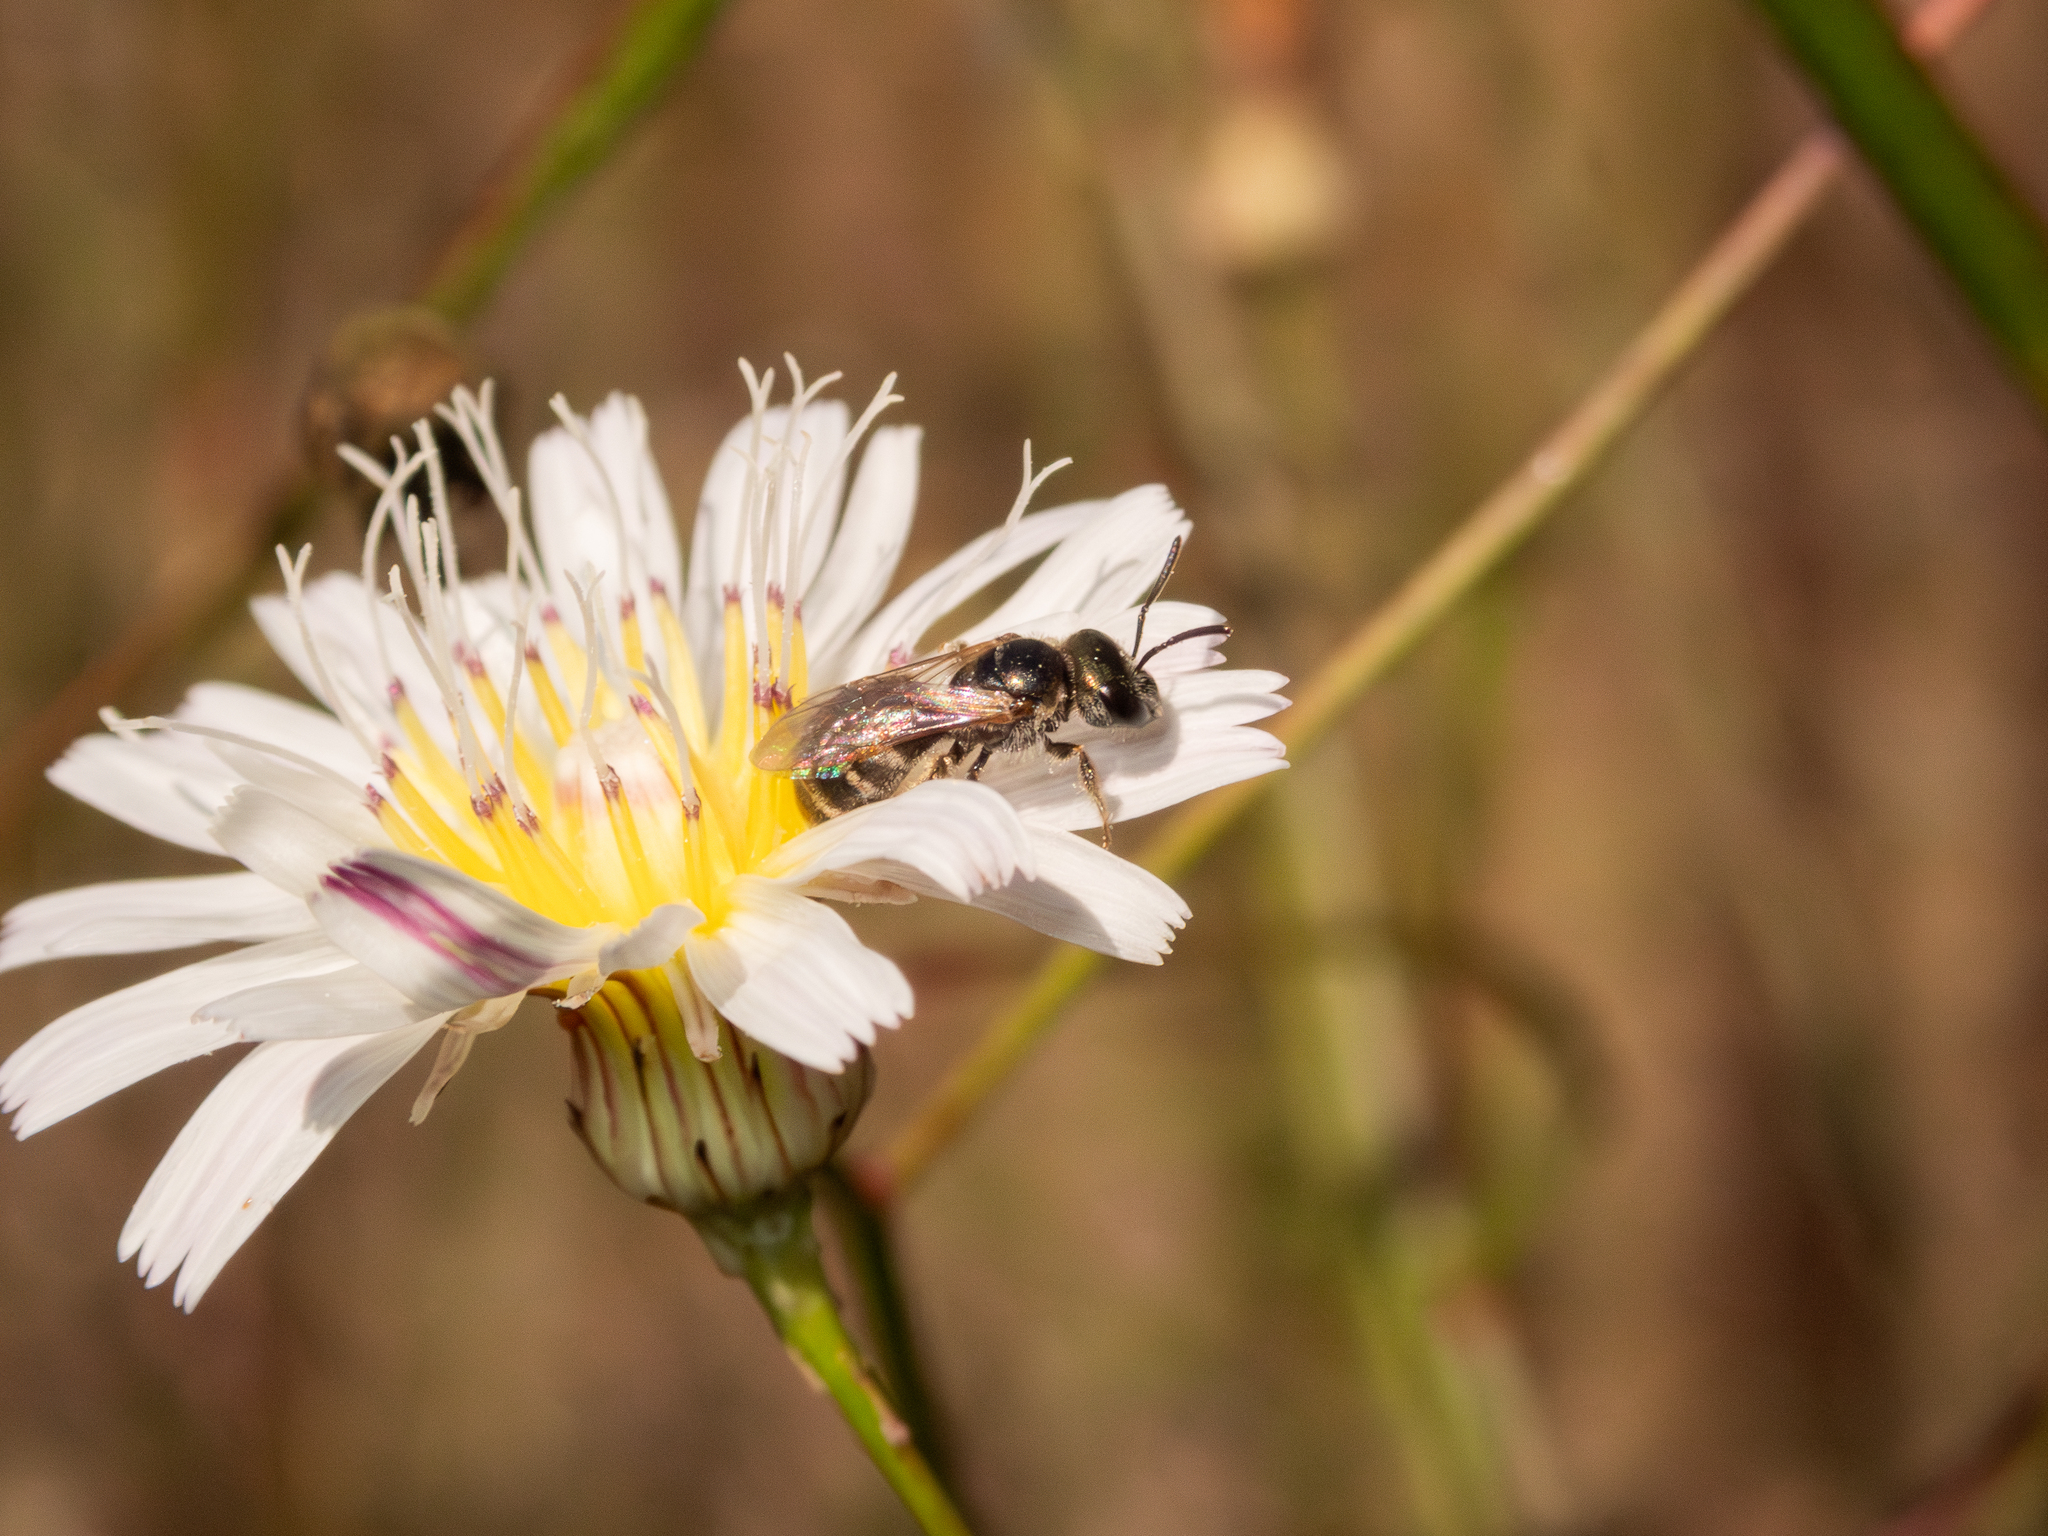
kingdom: Animalia
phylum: Arthropoda
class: Insecta
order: Hymenoptera
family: Halictidae
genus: Halictus
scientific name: Halictus tripartitus
